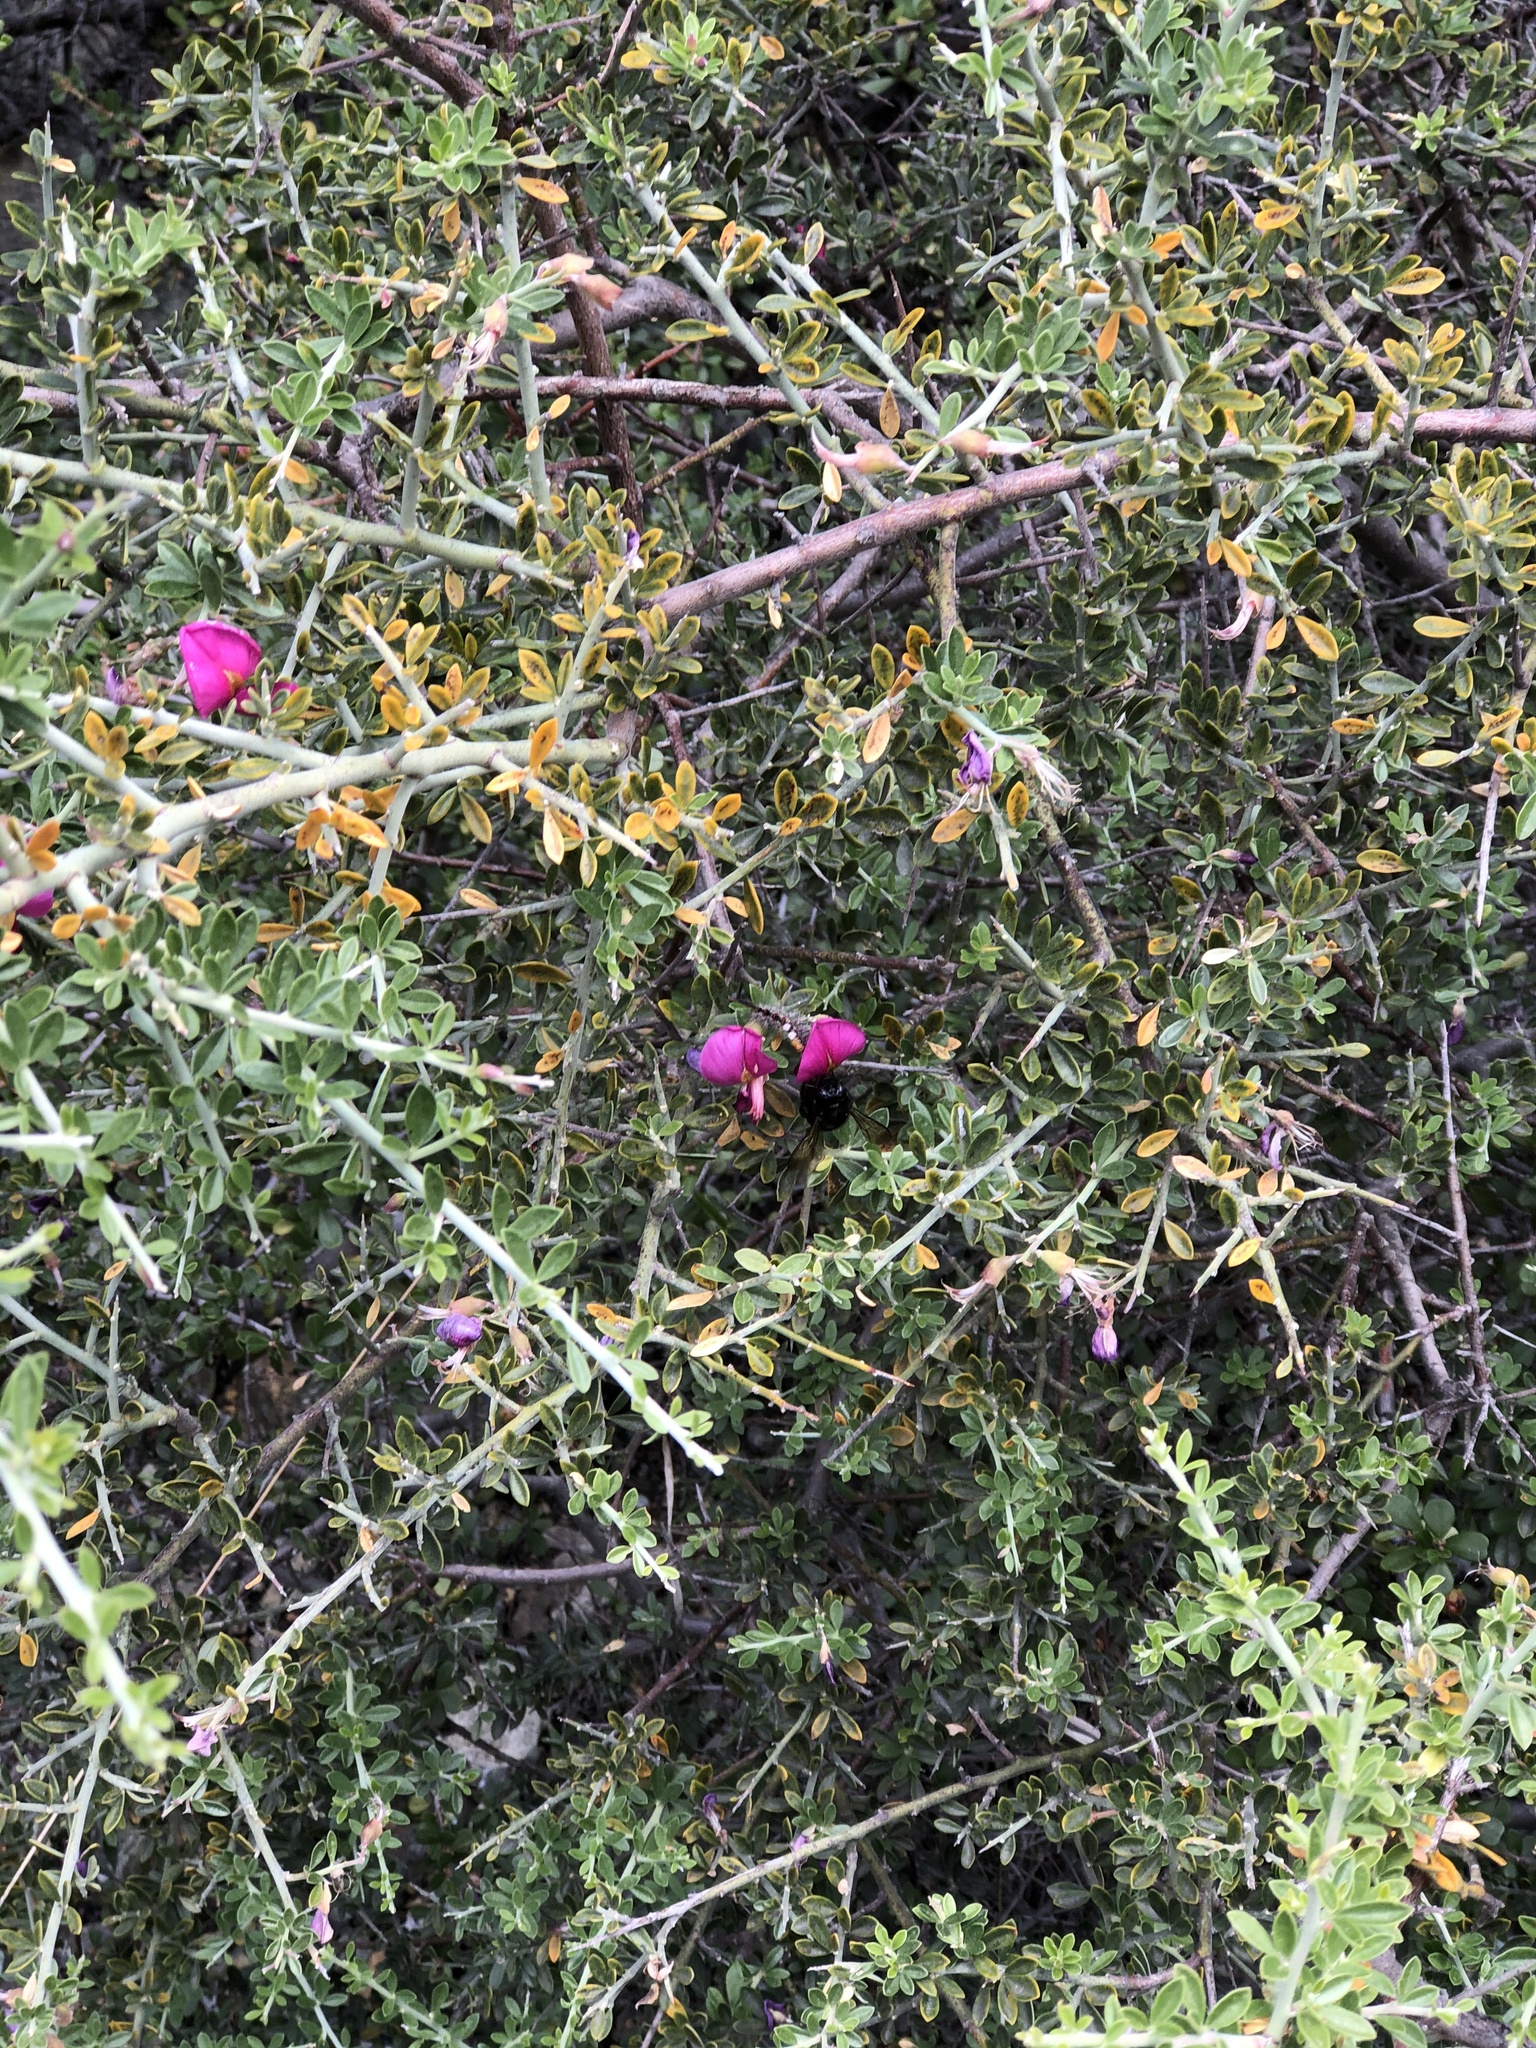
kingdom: Plantae
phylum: Tracheophyta
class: Magnoliopsida
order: Fabales
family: Fabaceae
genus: Pickeringia
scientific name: Pickeringia montana
